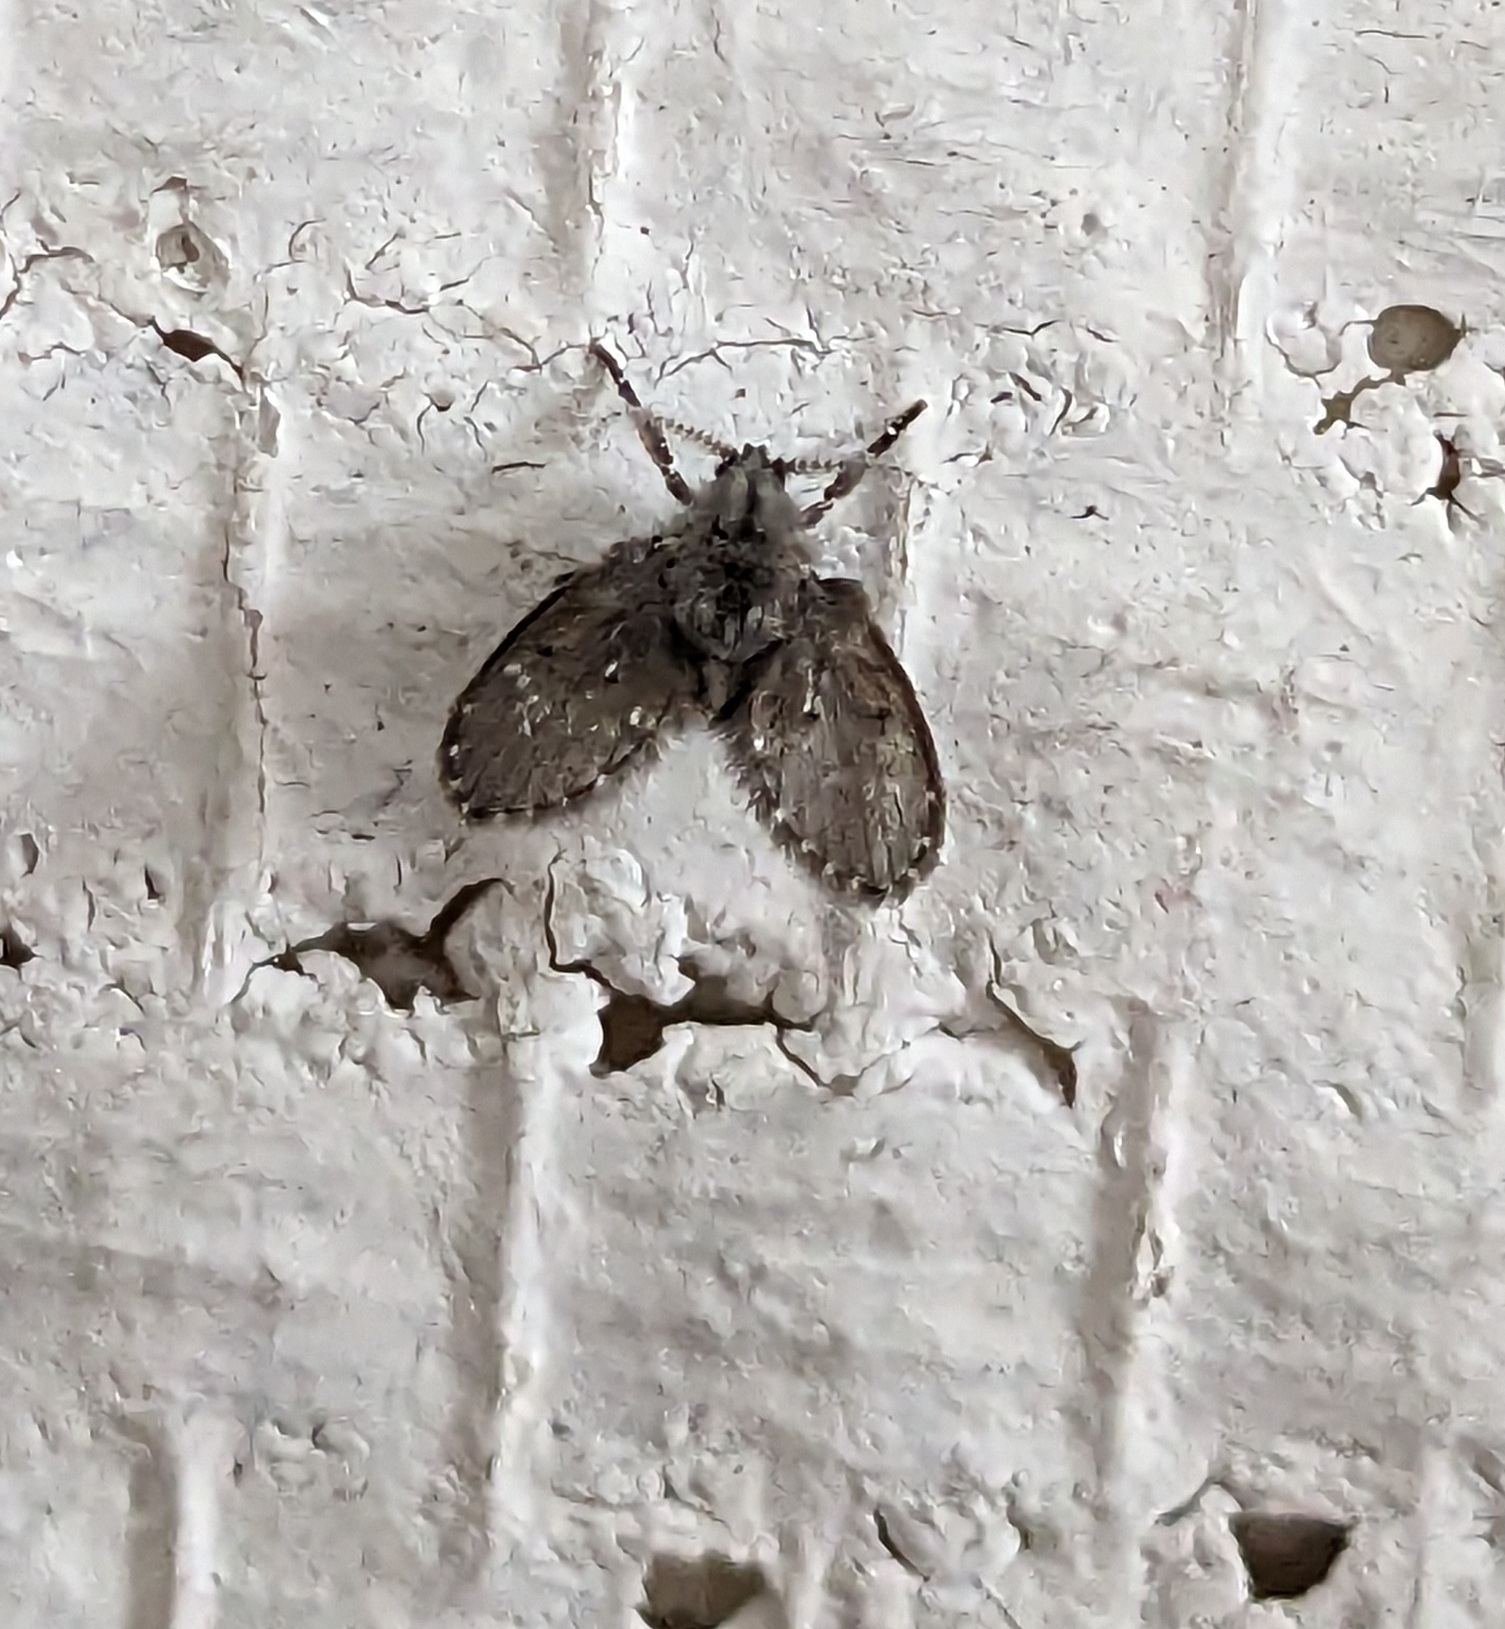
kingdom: Animalia
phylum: Arthropoda
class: Insecta
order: Diptera
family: Psychodidae
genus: Clogmia
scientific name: Clogmia albipunctatus
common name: White-spotted moth fly
